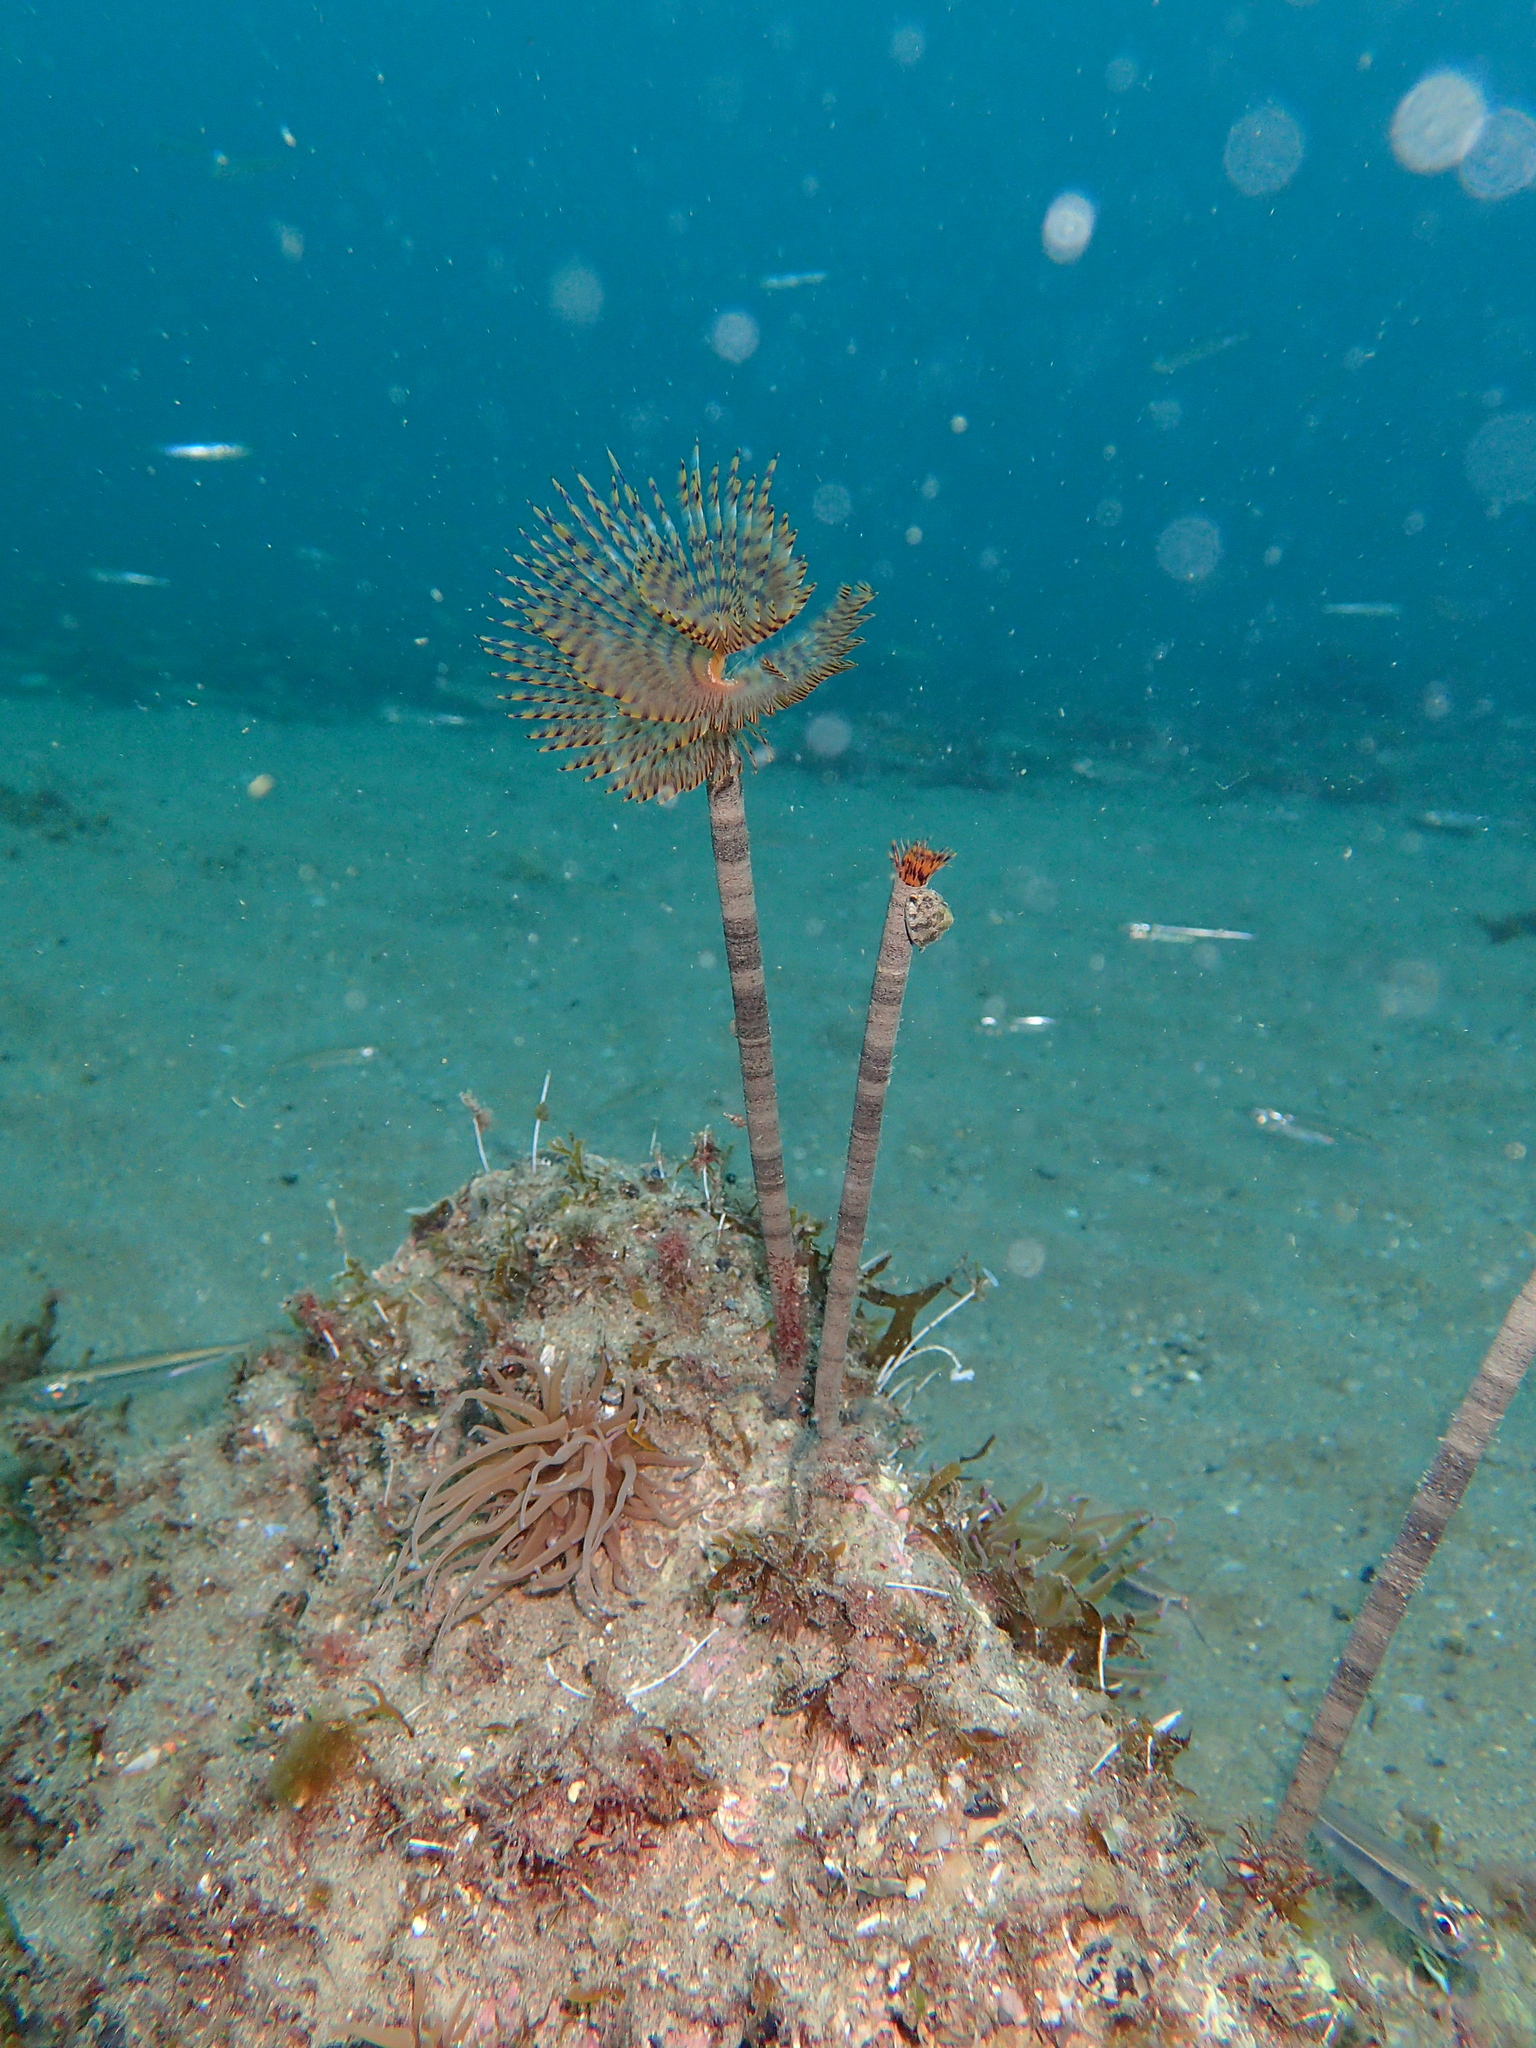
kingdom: Animalia
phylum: Annelida
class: Polychaeta
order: Sabellida
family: Sabellidae
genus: Sabella
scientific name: Sabella spallanzanii
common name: Feather duster worm
